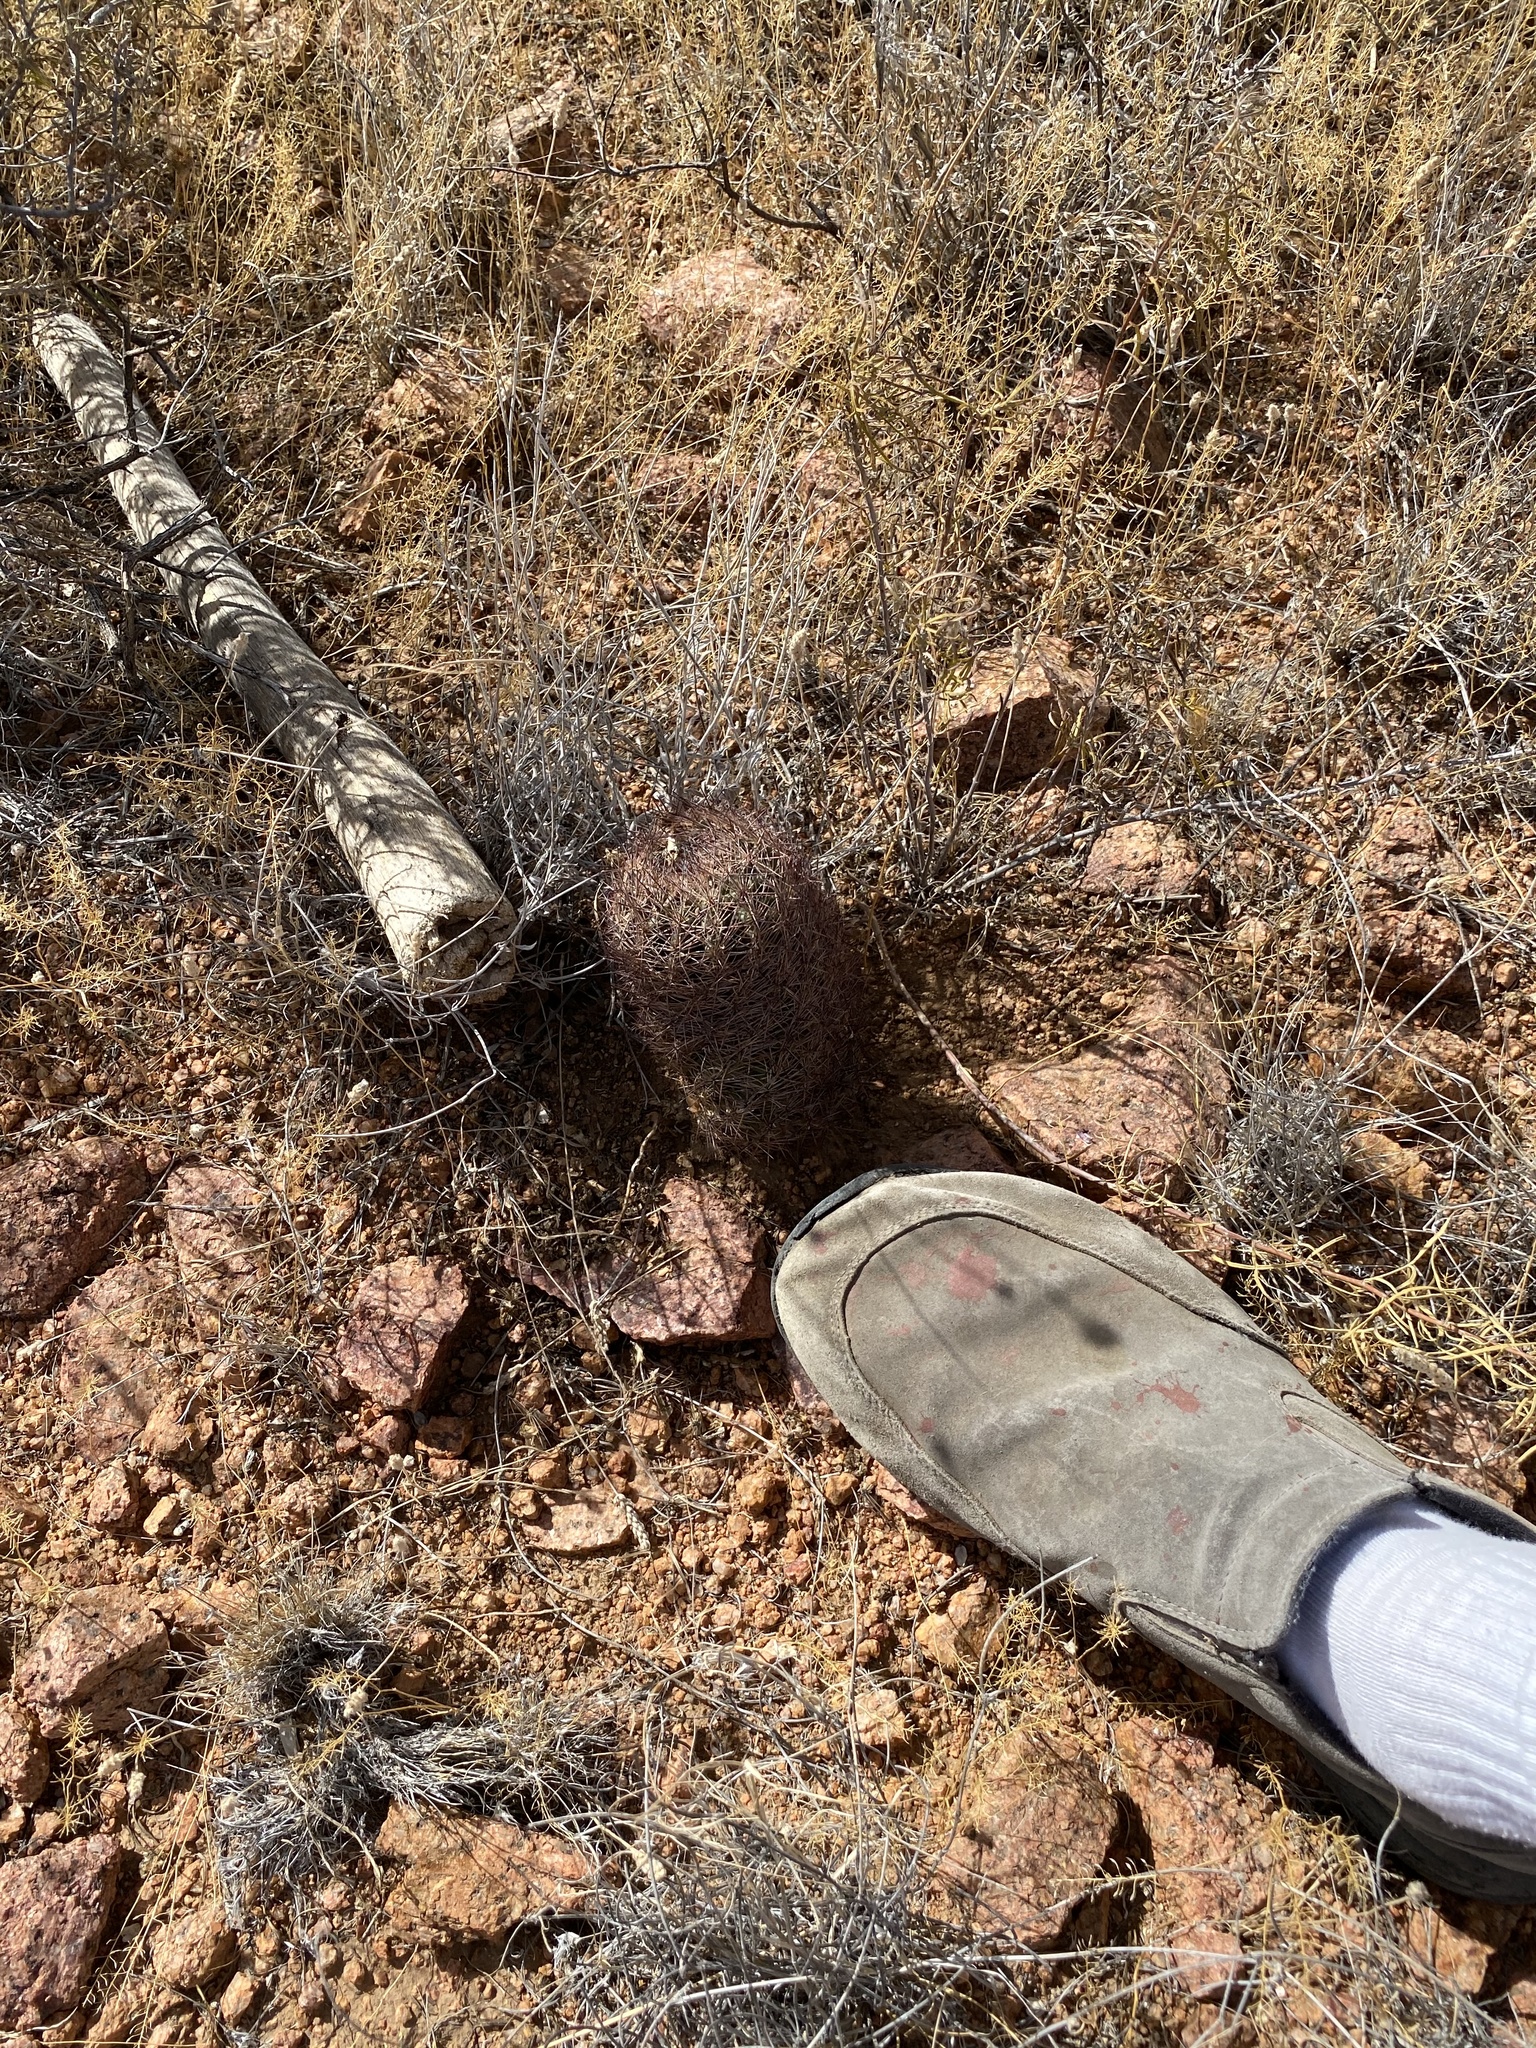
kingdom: Plantae
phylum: Tracheophyta
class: Magnoliopsida
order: Caryophyllales
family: Cactaceae
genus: Sclerocactus
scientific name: Sclerocactus intertextus
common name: White fish-hook cactus
